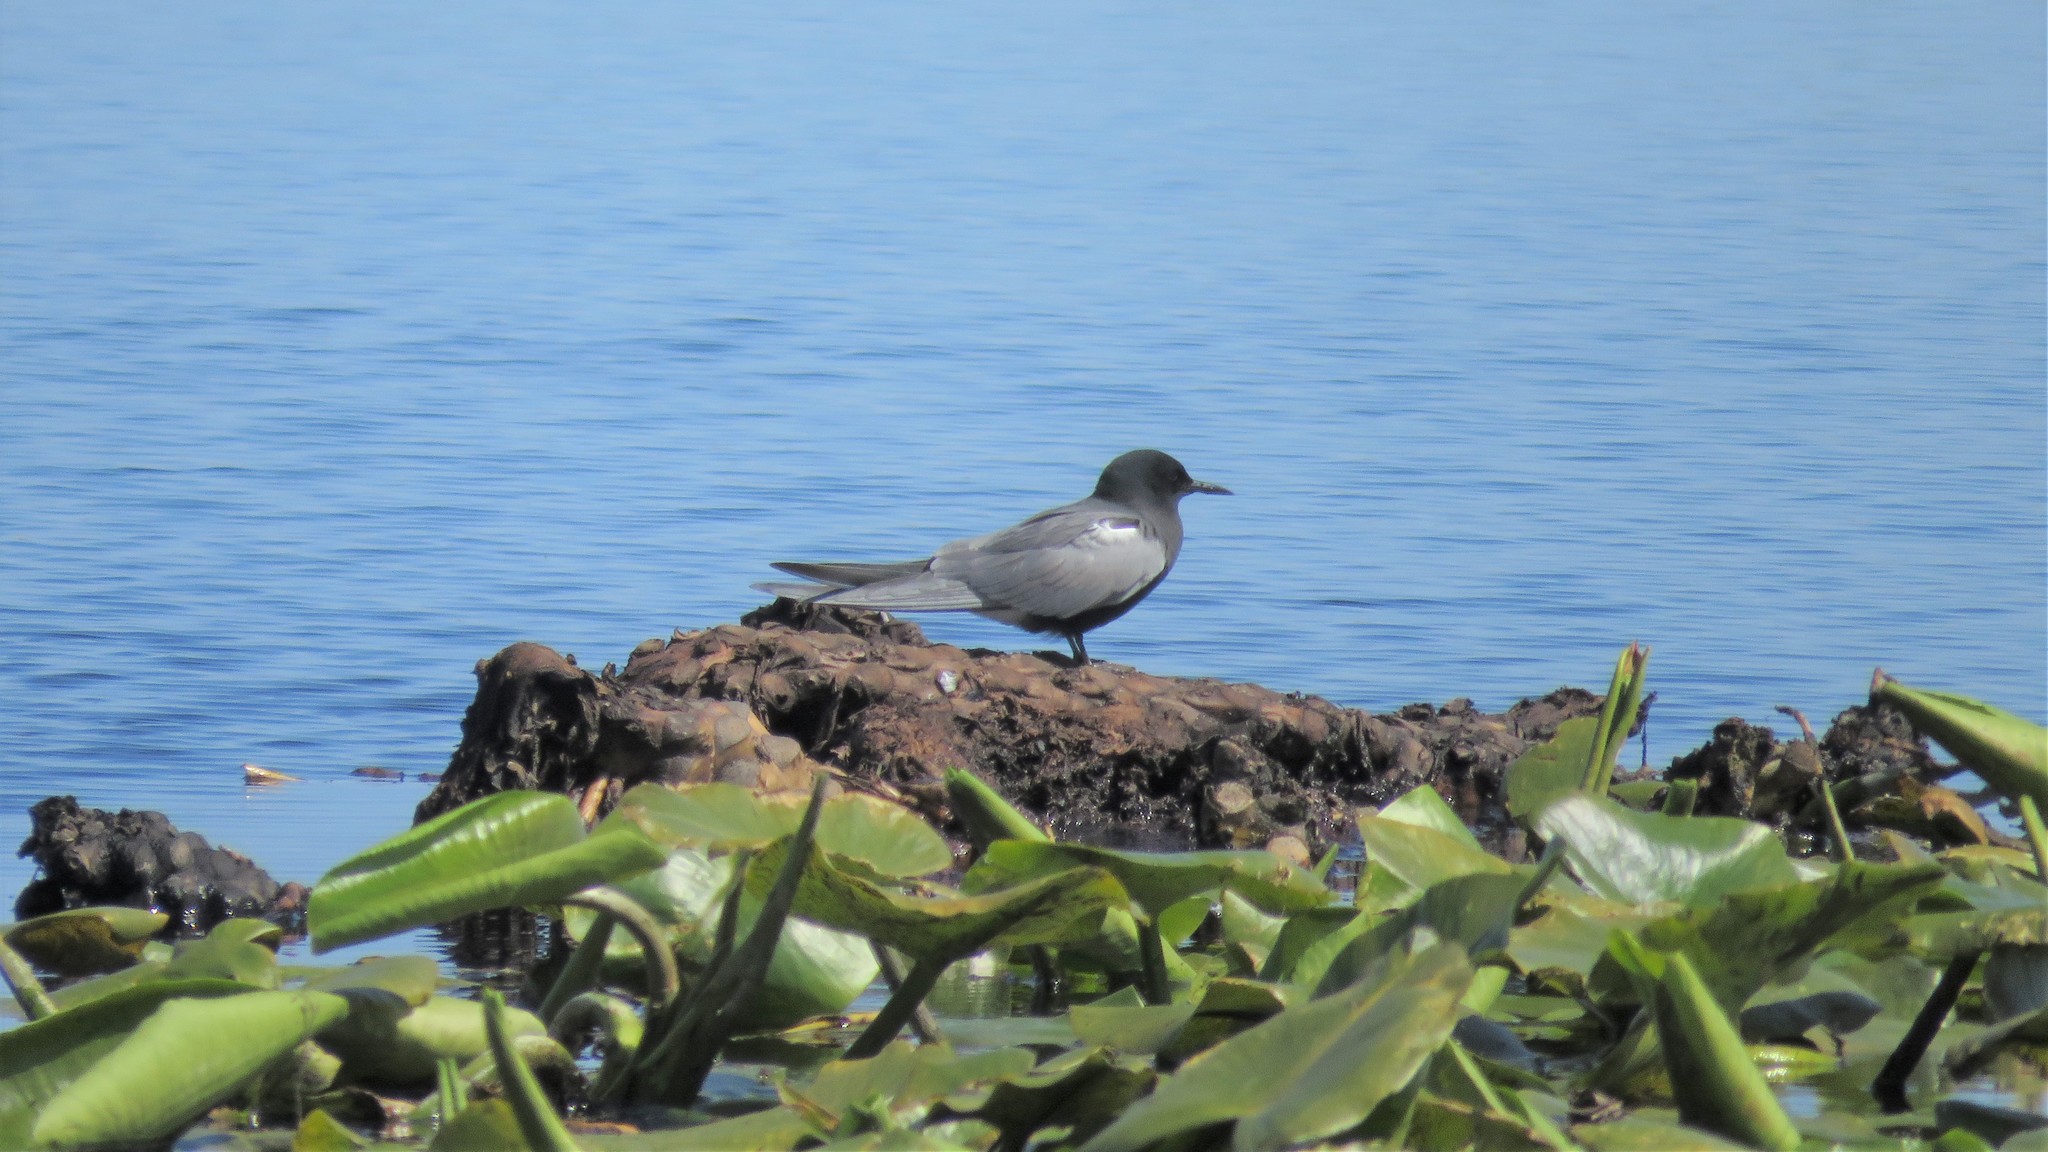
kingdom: Animalia
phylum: Chordata
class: Aves
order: Charadriiformes
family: Laridae
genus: Chlidonias
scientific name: Chlidonias niger
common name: Black tern
